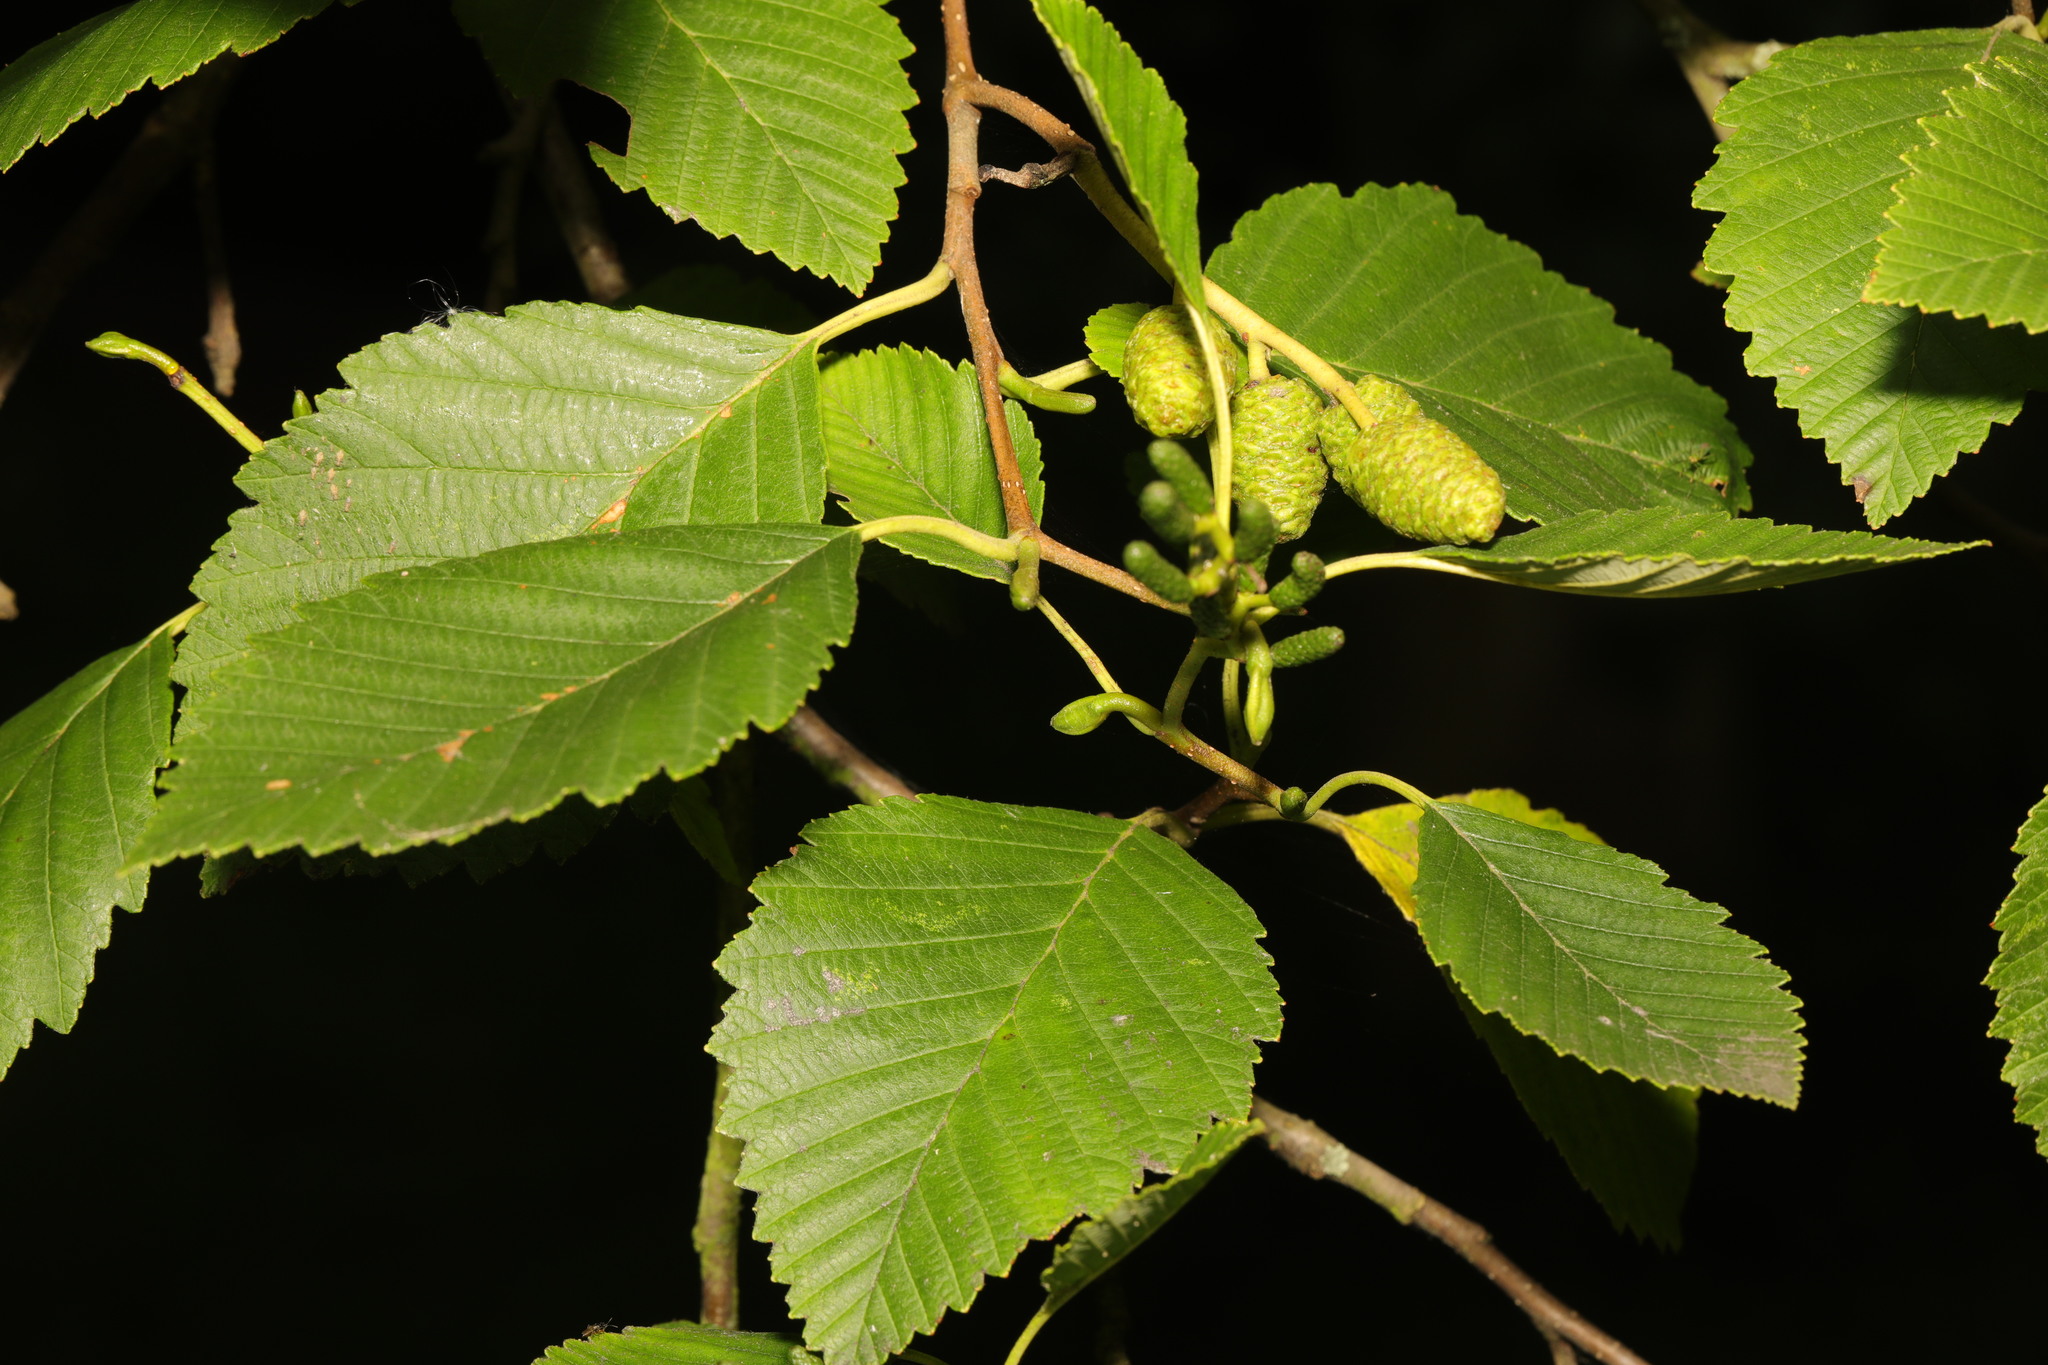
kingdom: Plantae
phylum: Tracheophyta
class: Magnoliopsida
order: Fagales
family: Betulaceae
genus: Alnus
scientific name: Alnus incana
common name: Grey alder
